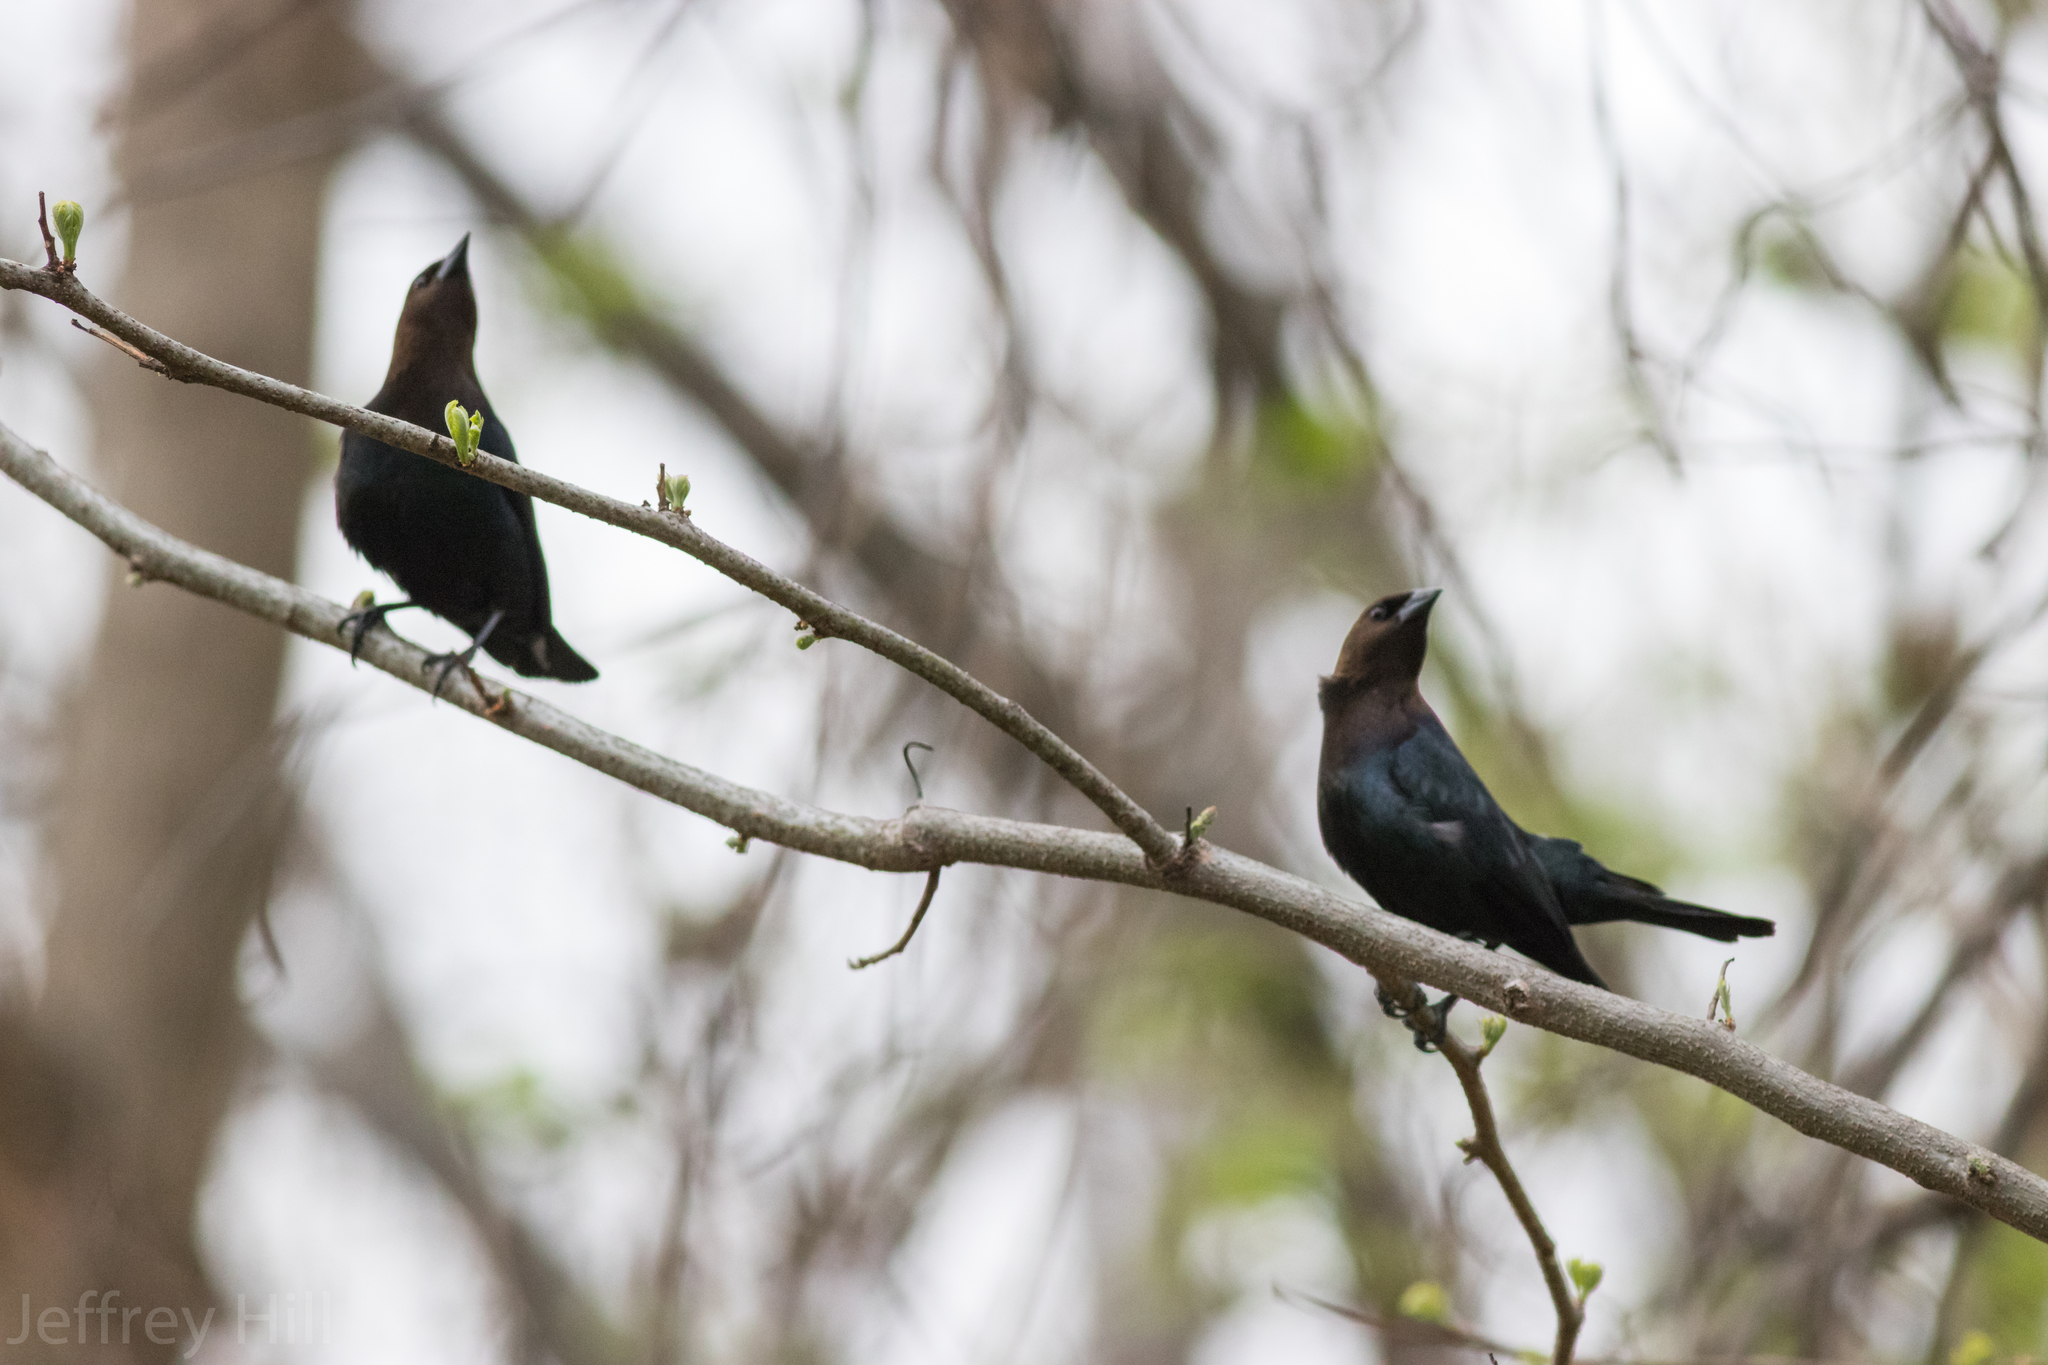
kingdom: Animalia
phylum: Chordata
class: Aves
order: Passeriformes
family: Icteridae
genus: Molothrus
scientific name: Molothrus ater
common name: Brown-headed cowbird
